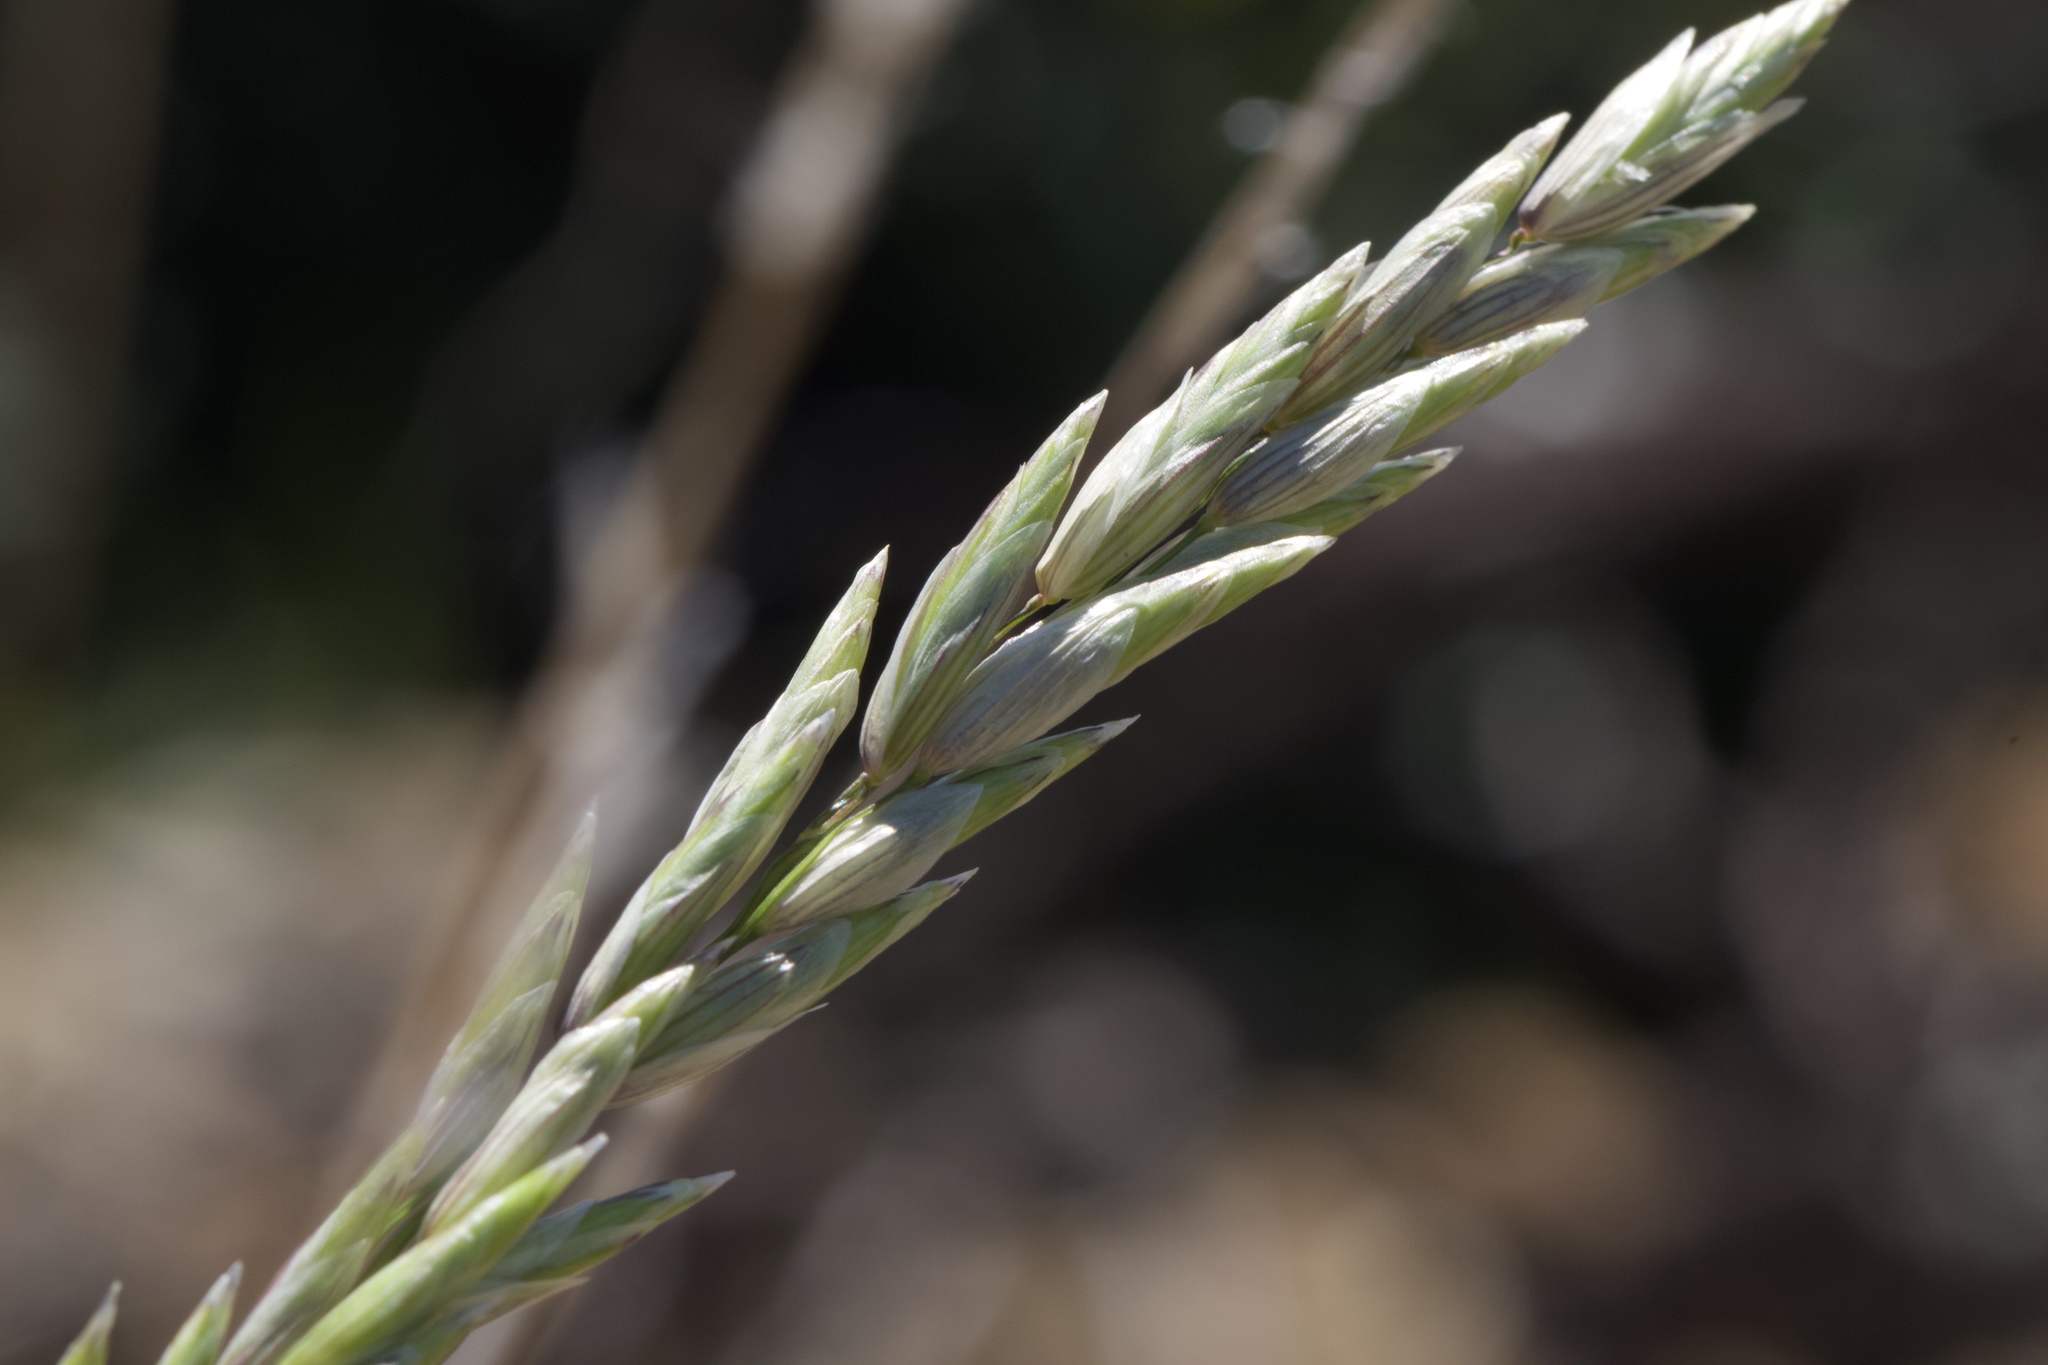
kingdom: Plantae
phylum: Tracheophyta
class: Liliopsida
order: Poales
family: Poaceae
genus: Melica
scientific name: Melica californica
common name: California melic
